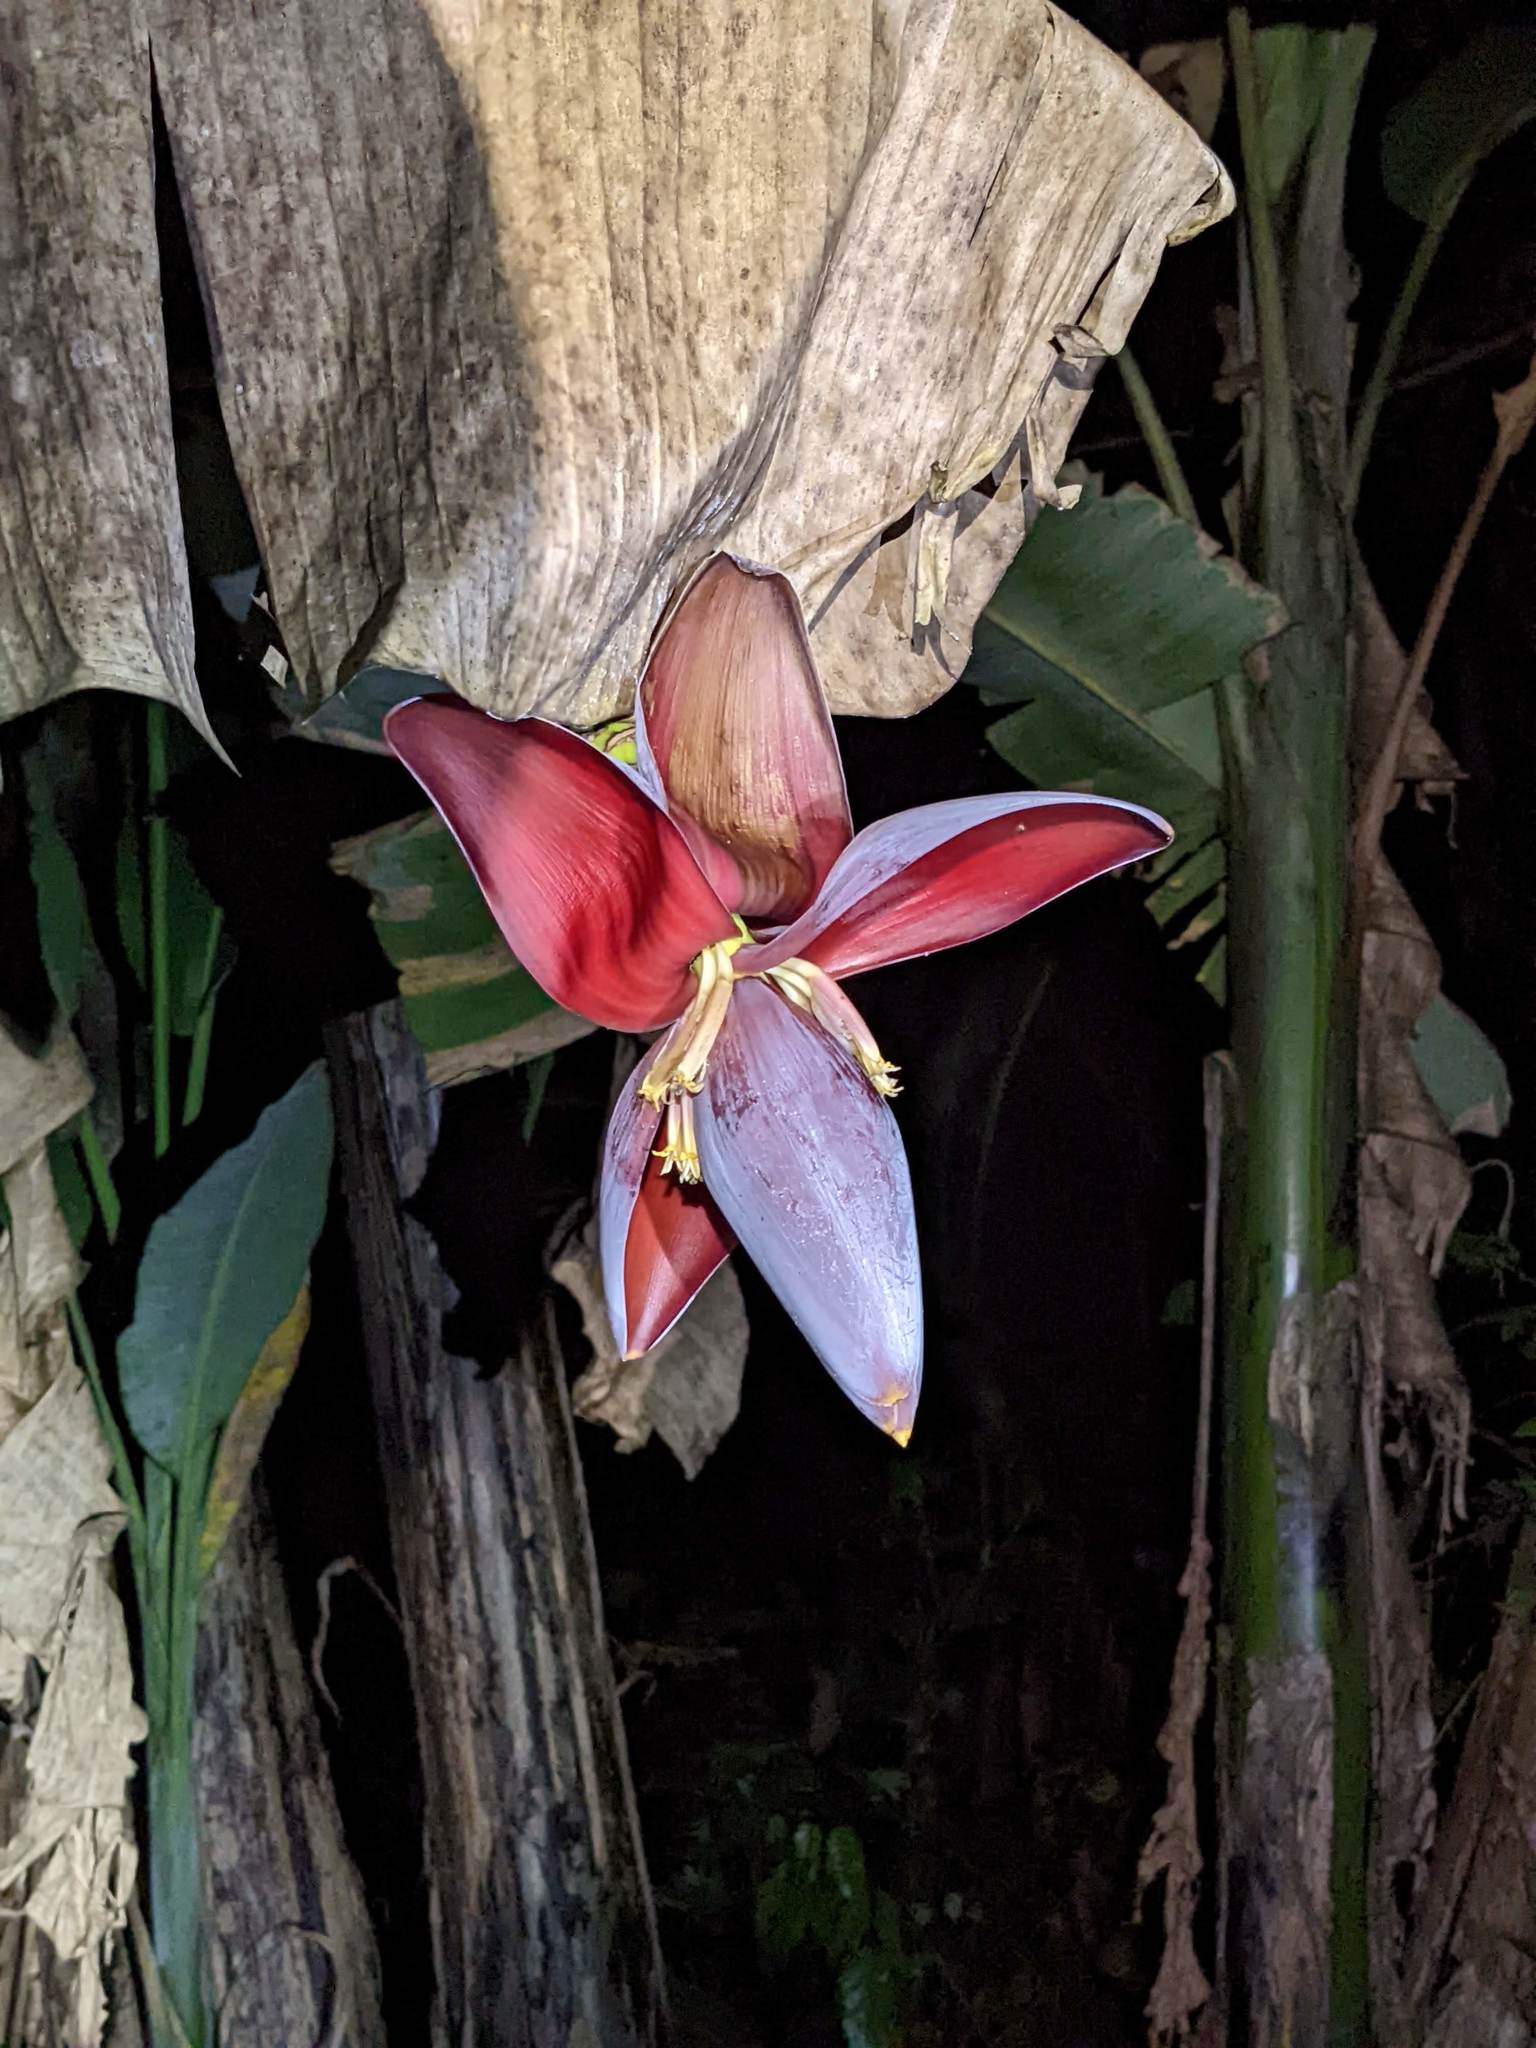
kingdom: Plantae
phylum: Tracheophyta
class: Liliopsida
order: Zingiberales
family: Musaceae
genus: Musa
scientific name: Musa balbisiana
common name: Plantain
